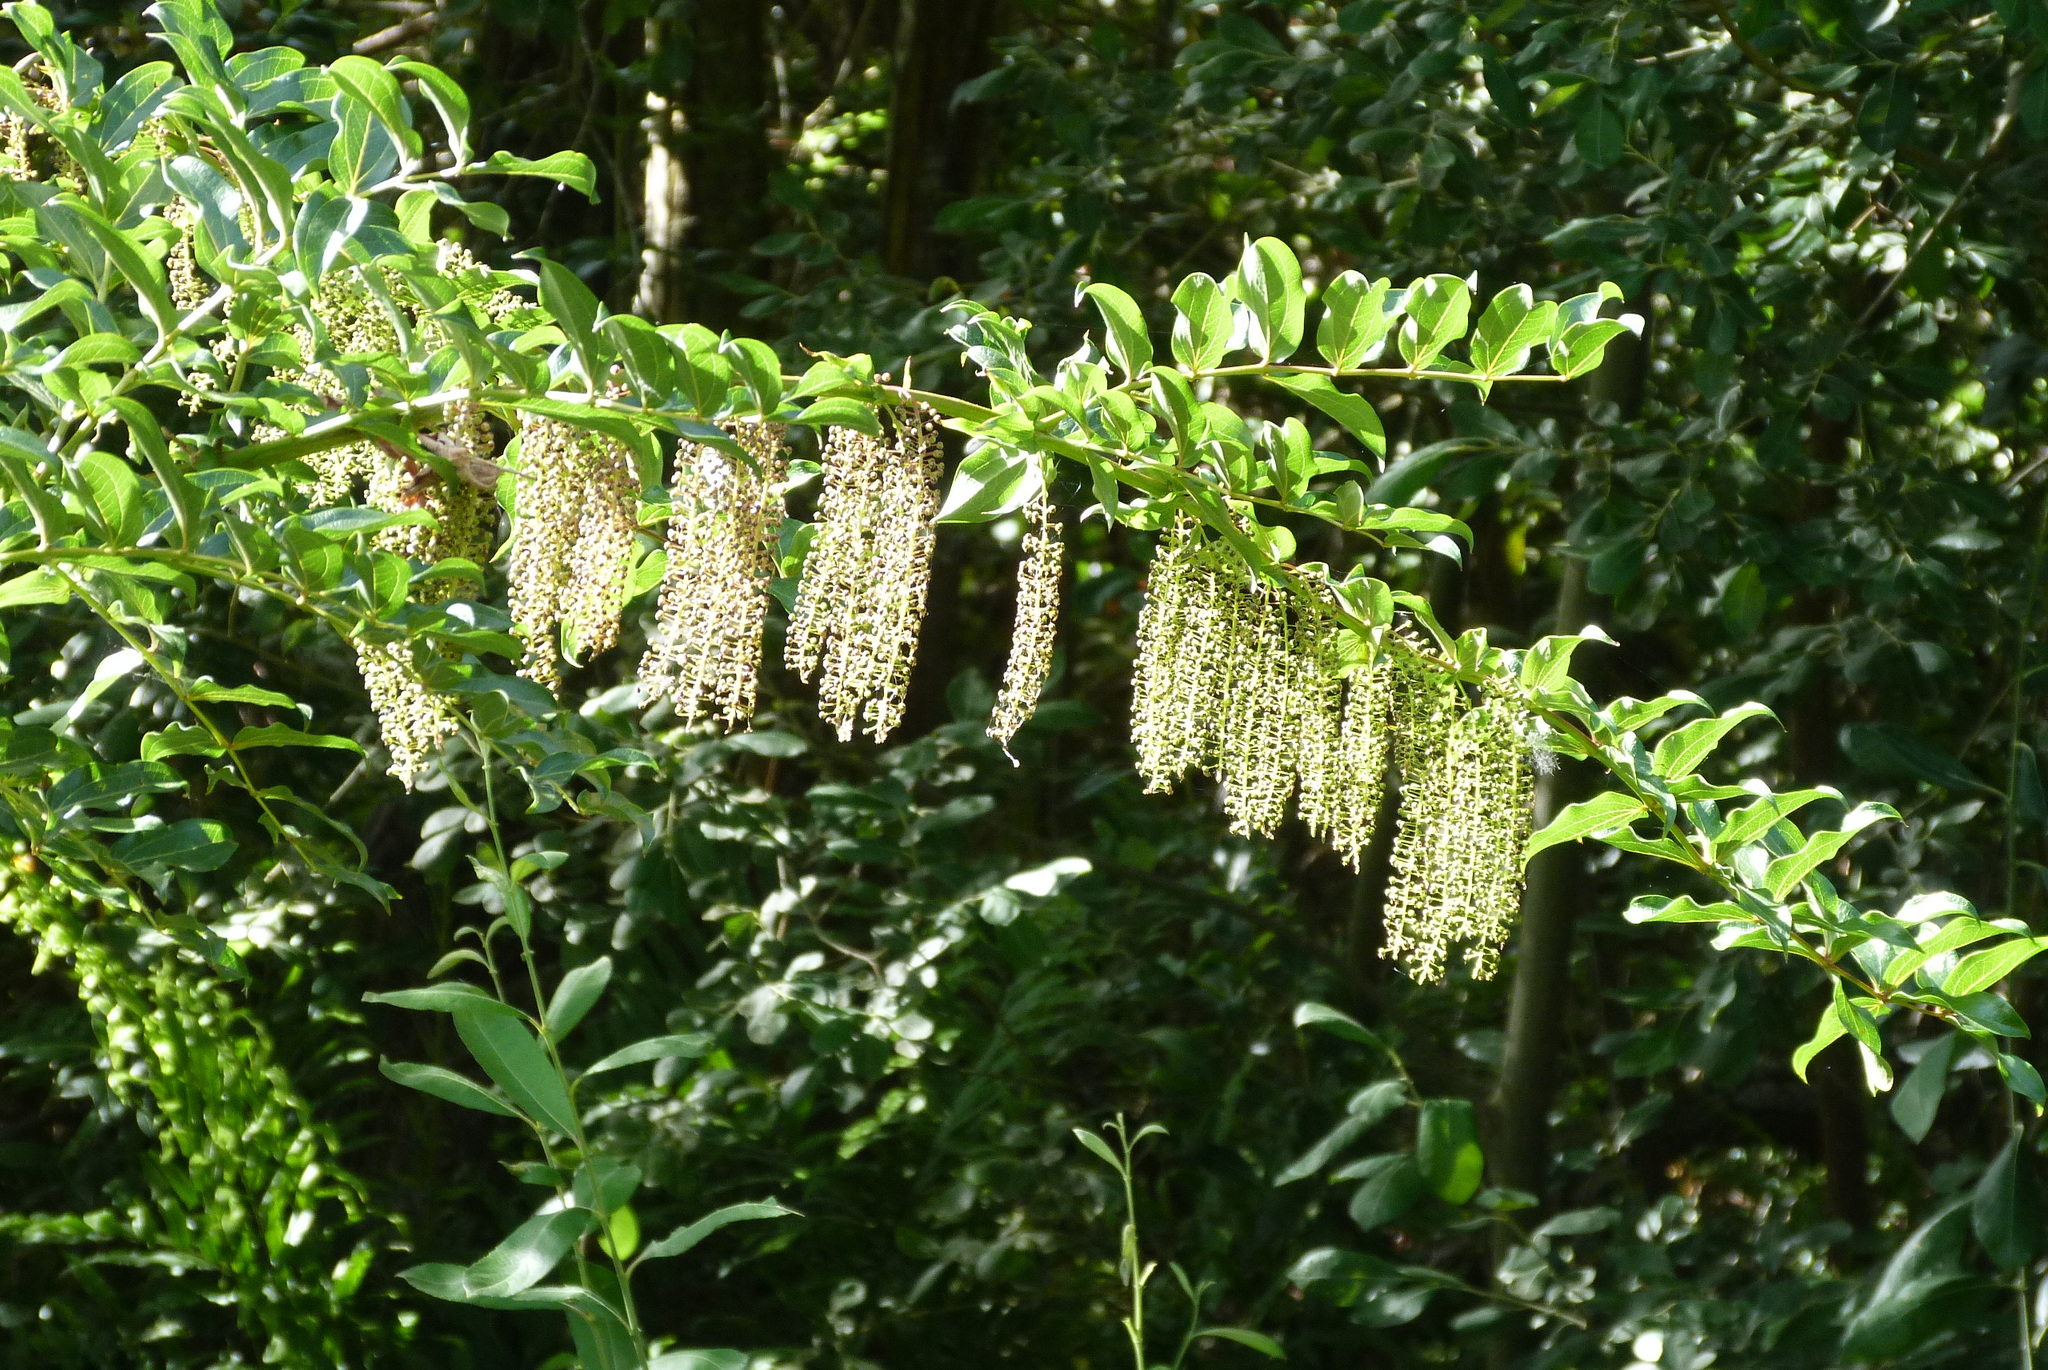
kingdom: Plantae
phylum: Tracheophyta
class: Magnoliopsida
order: Cucurbitales
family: Coriariaceae
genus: Coriaria
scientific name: Coriaria arborea
